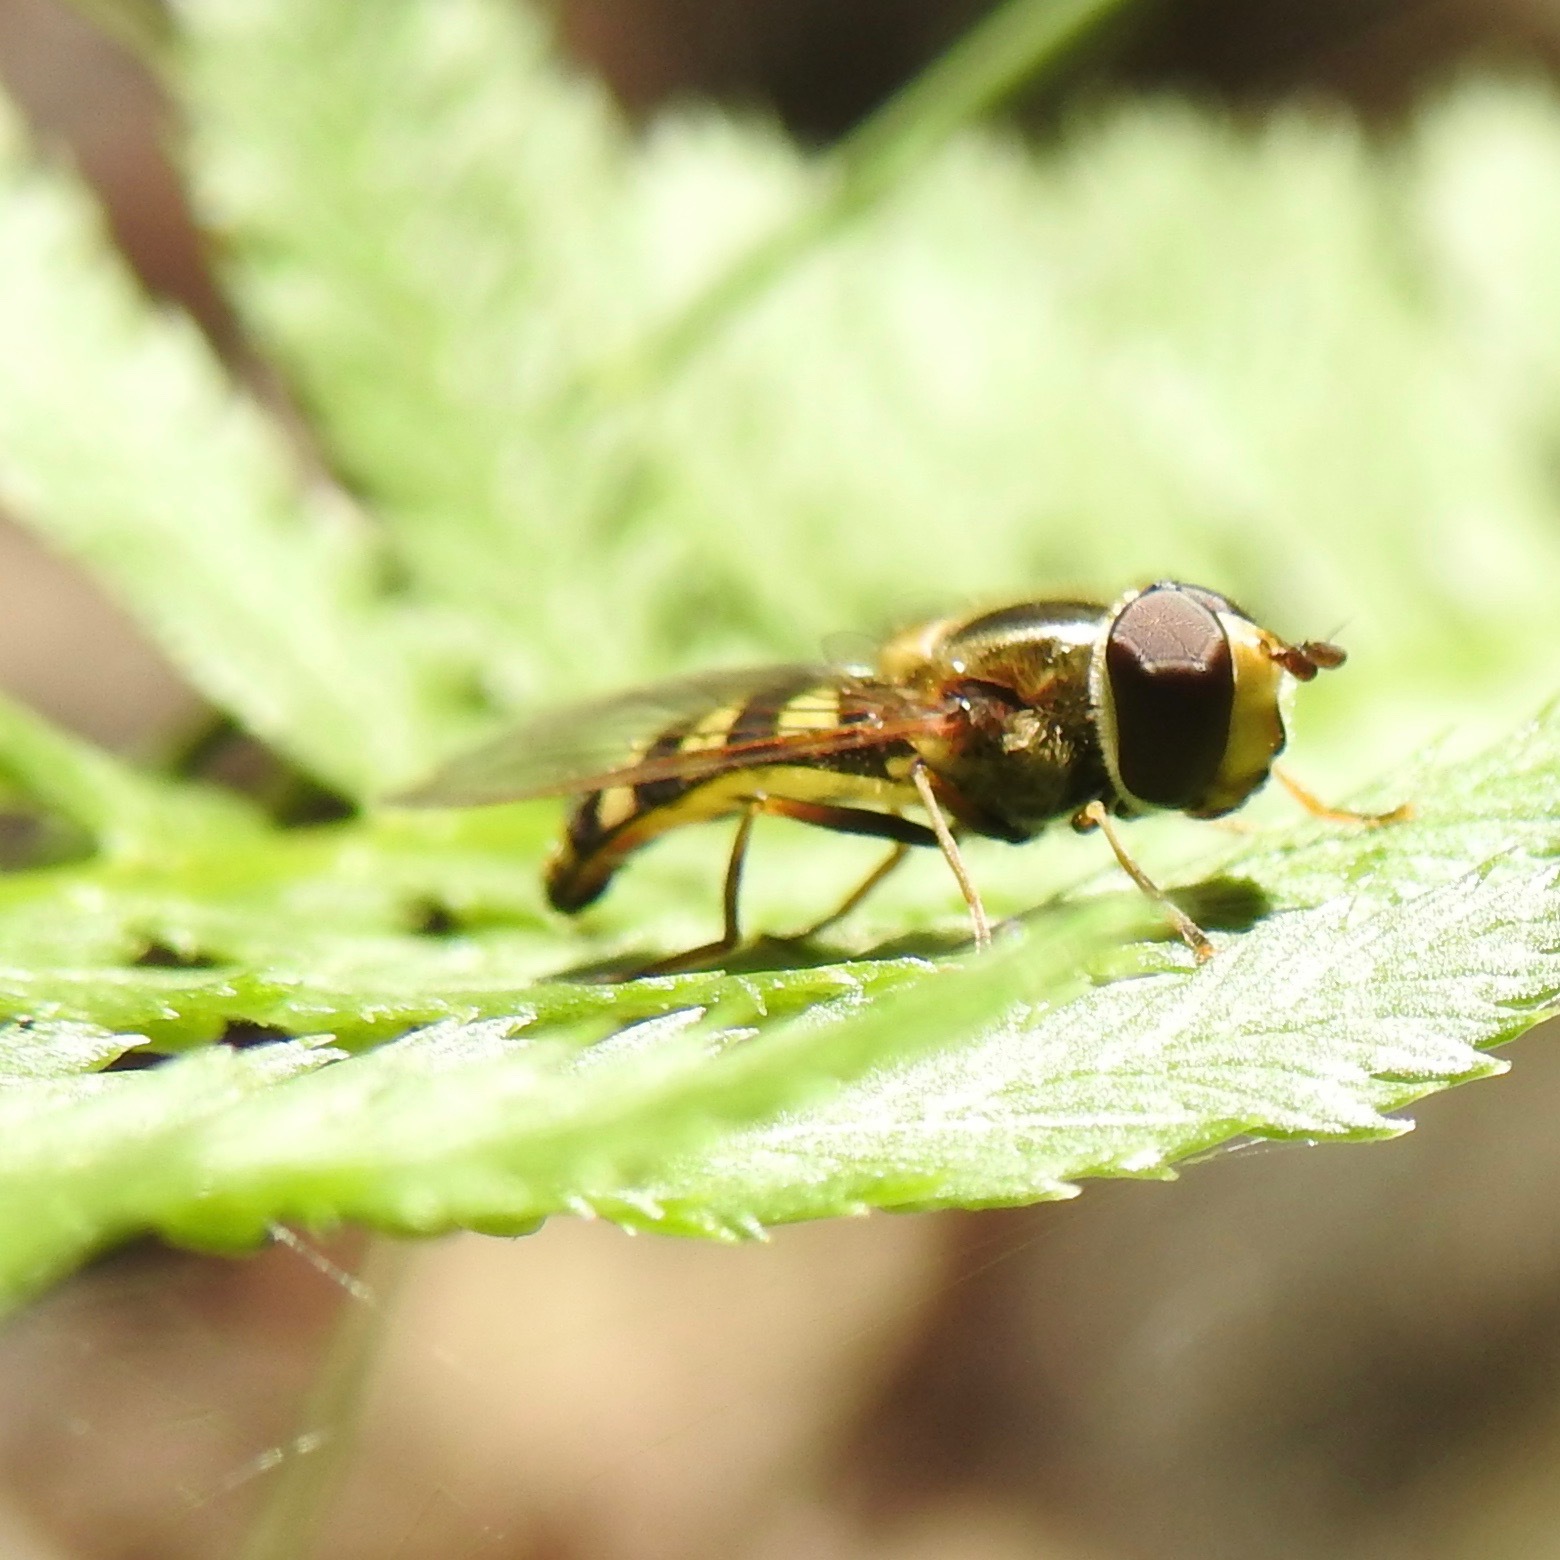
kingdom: Animalia
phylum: Arthropoda
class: Insecta
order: Diptera
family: Syrphidae
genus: Eupeodes
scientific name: Eupeodes fumipennis
